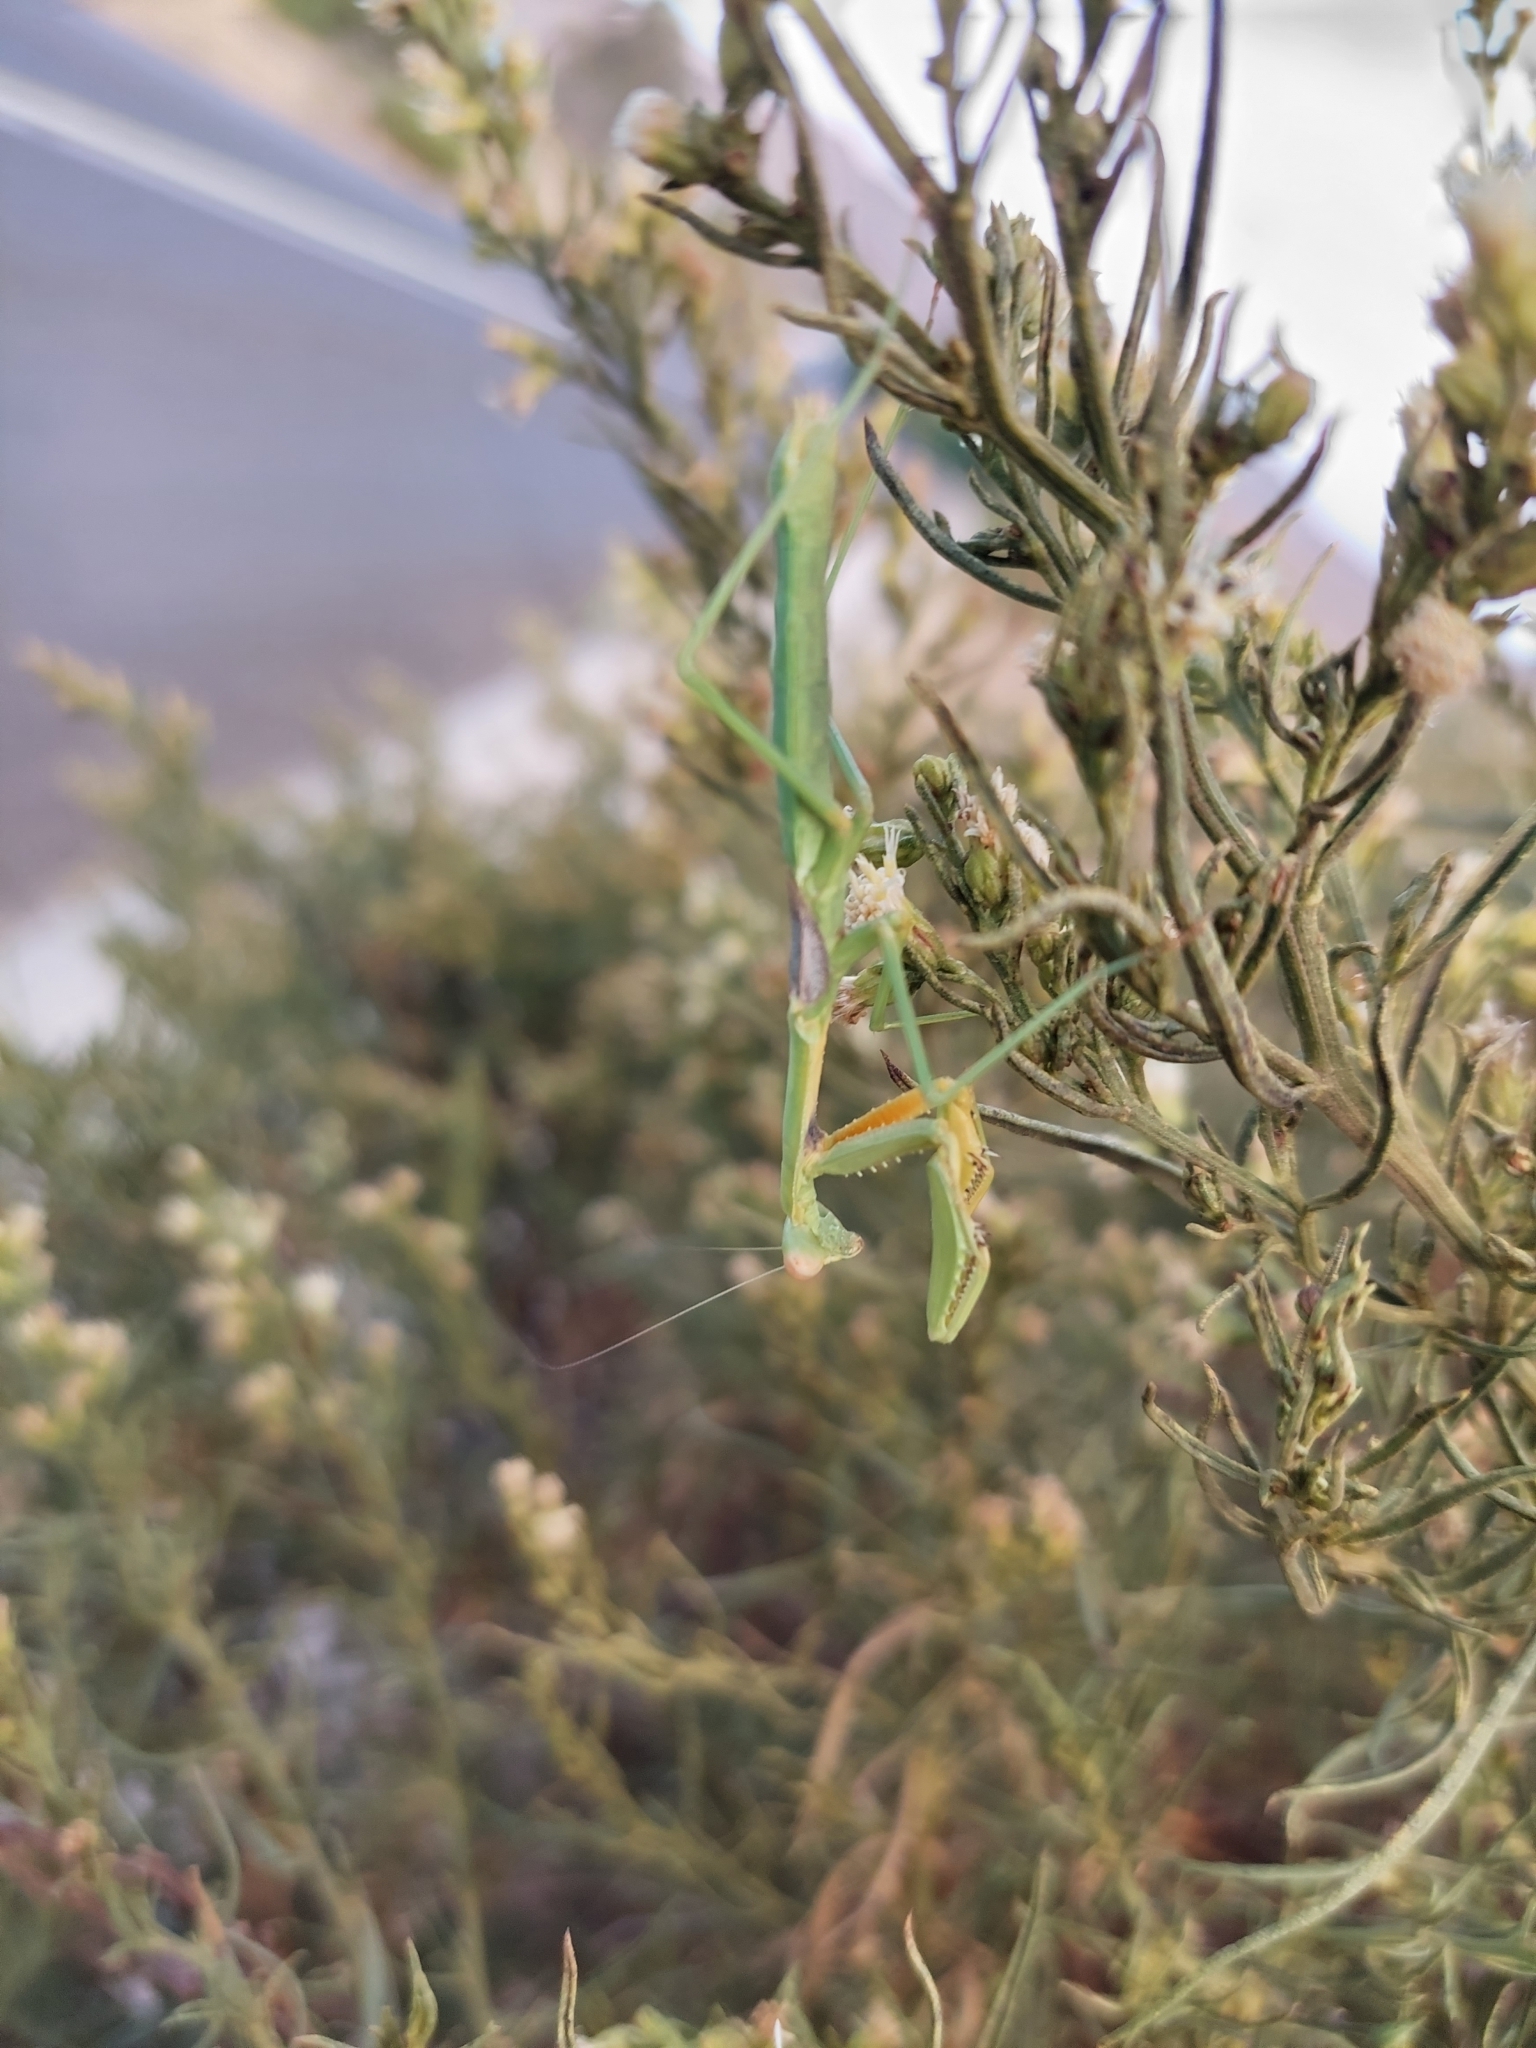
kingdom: Animalia
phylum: Arthropoda
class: Insecta
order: Mantodea
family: Coptopterygidae
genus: Coptopteryx
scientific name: Coptopteryx gayi
